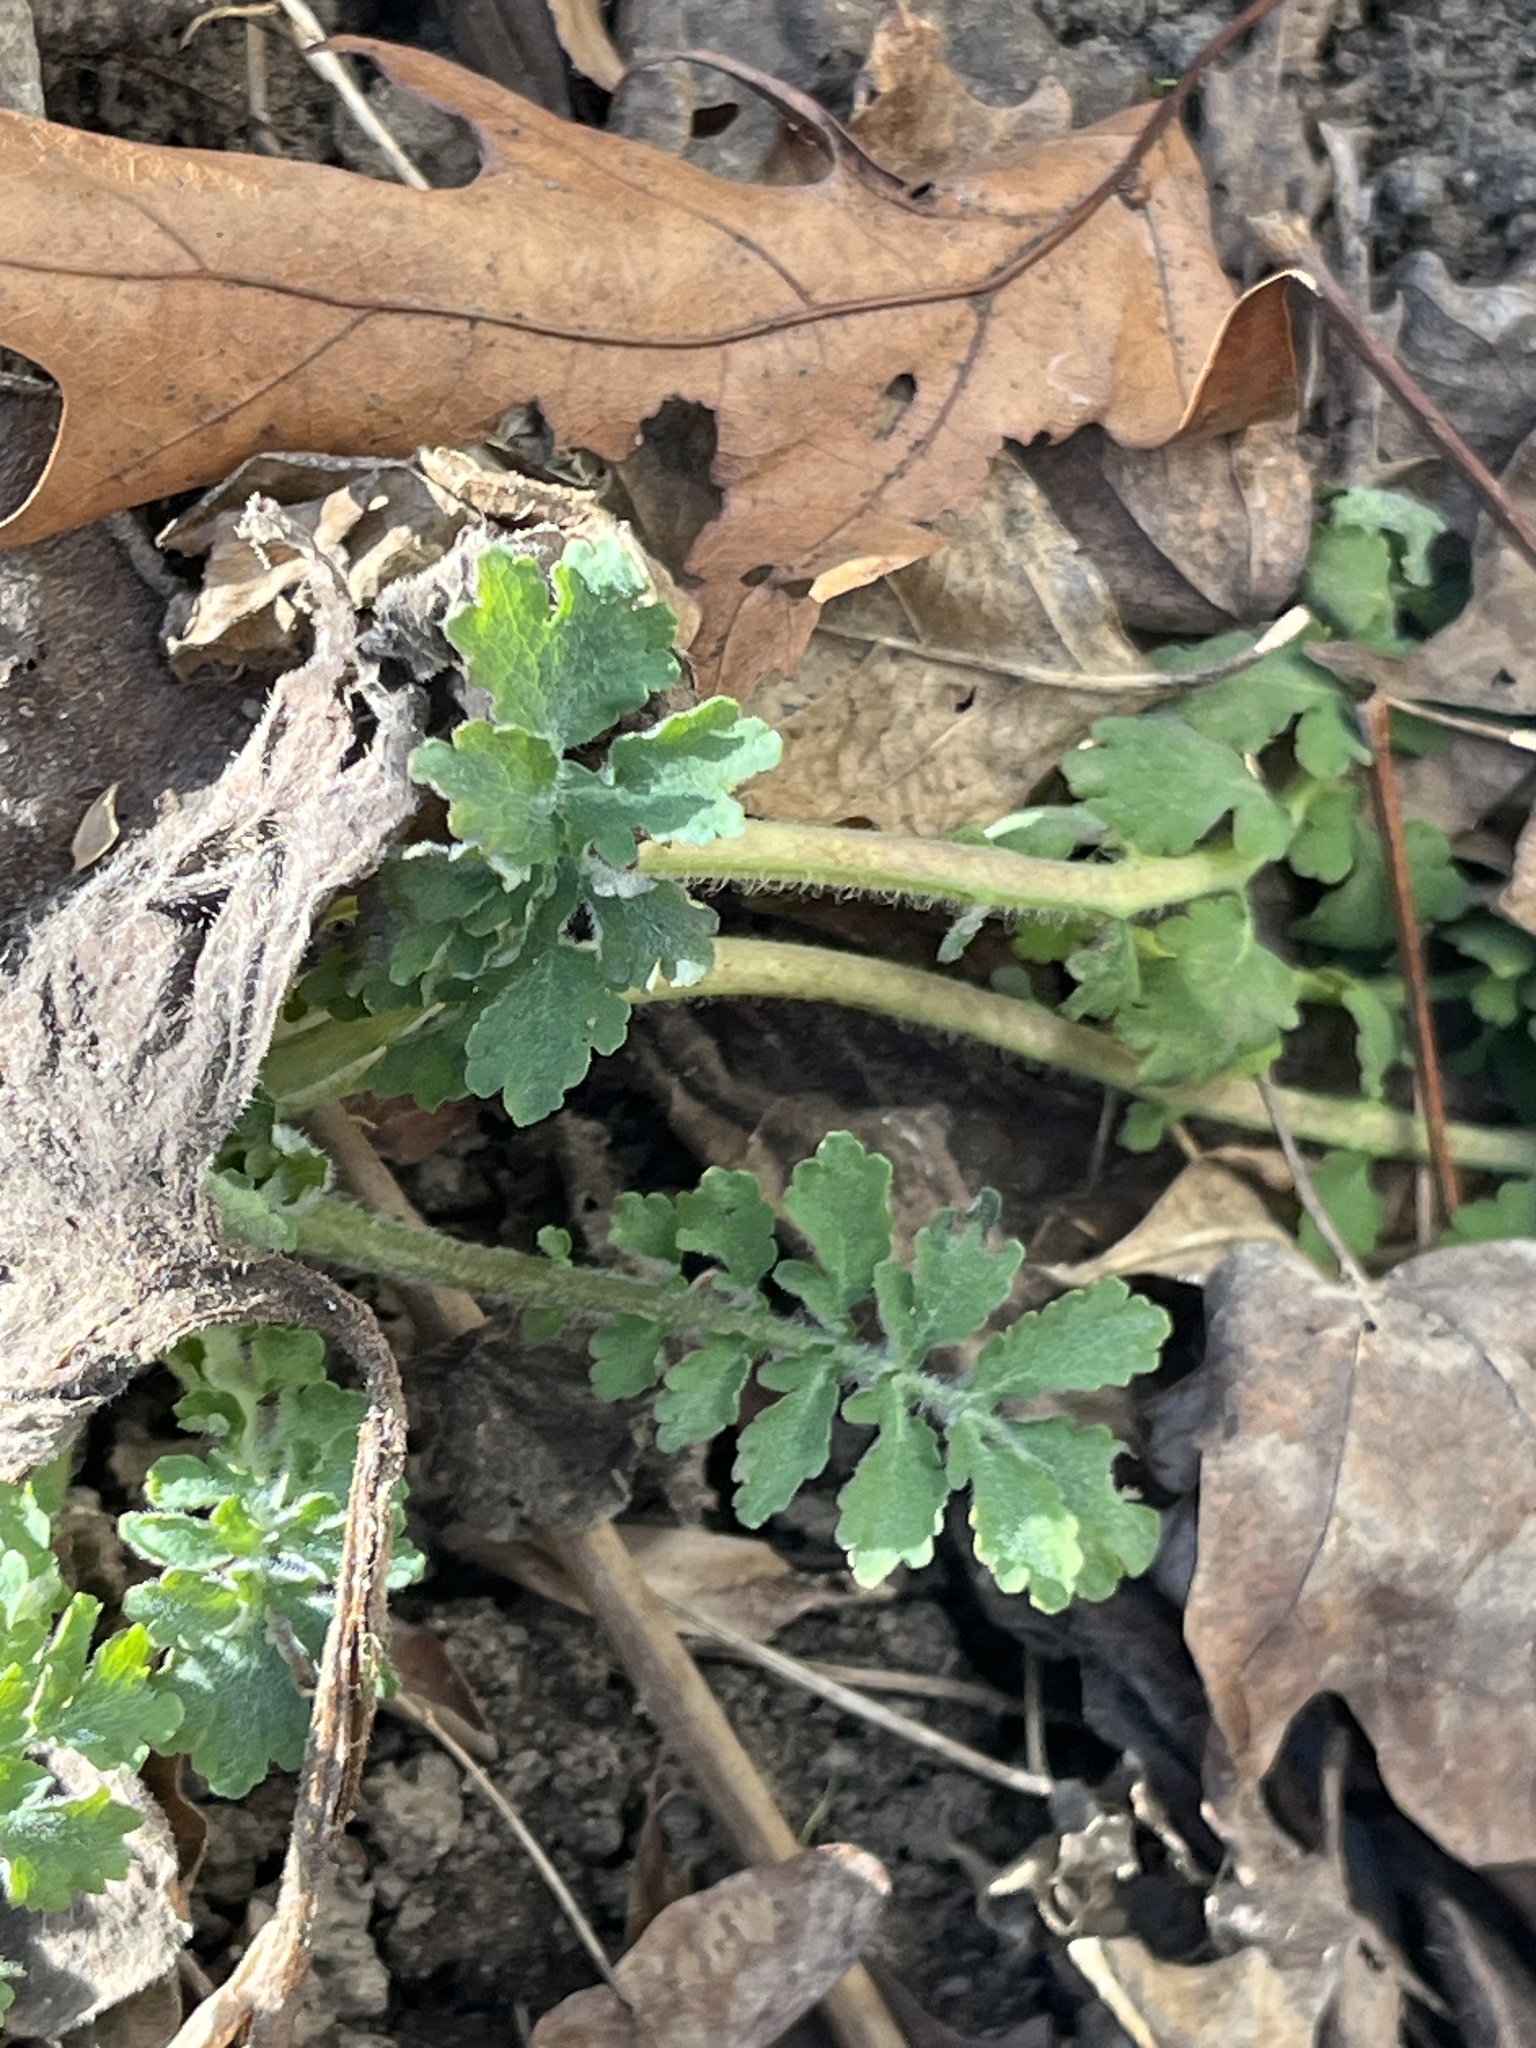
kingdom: Plantae
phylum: Tracheophyta
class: Magnoliopsida
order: Ranunculales
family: Papaveraceae
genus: Chelidonium
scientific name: Chelidonium majus
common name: Greater celandine
